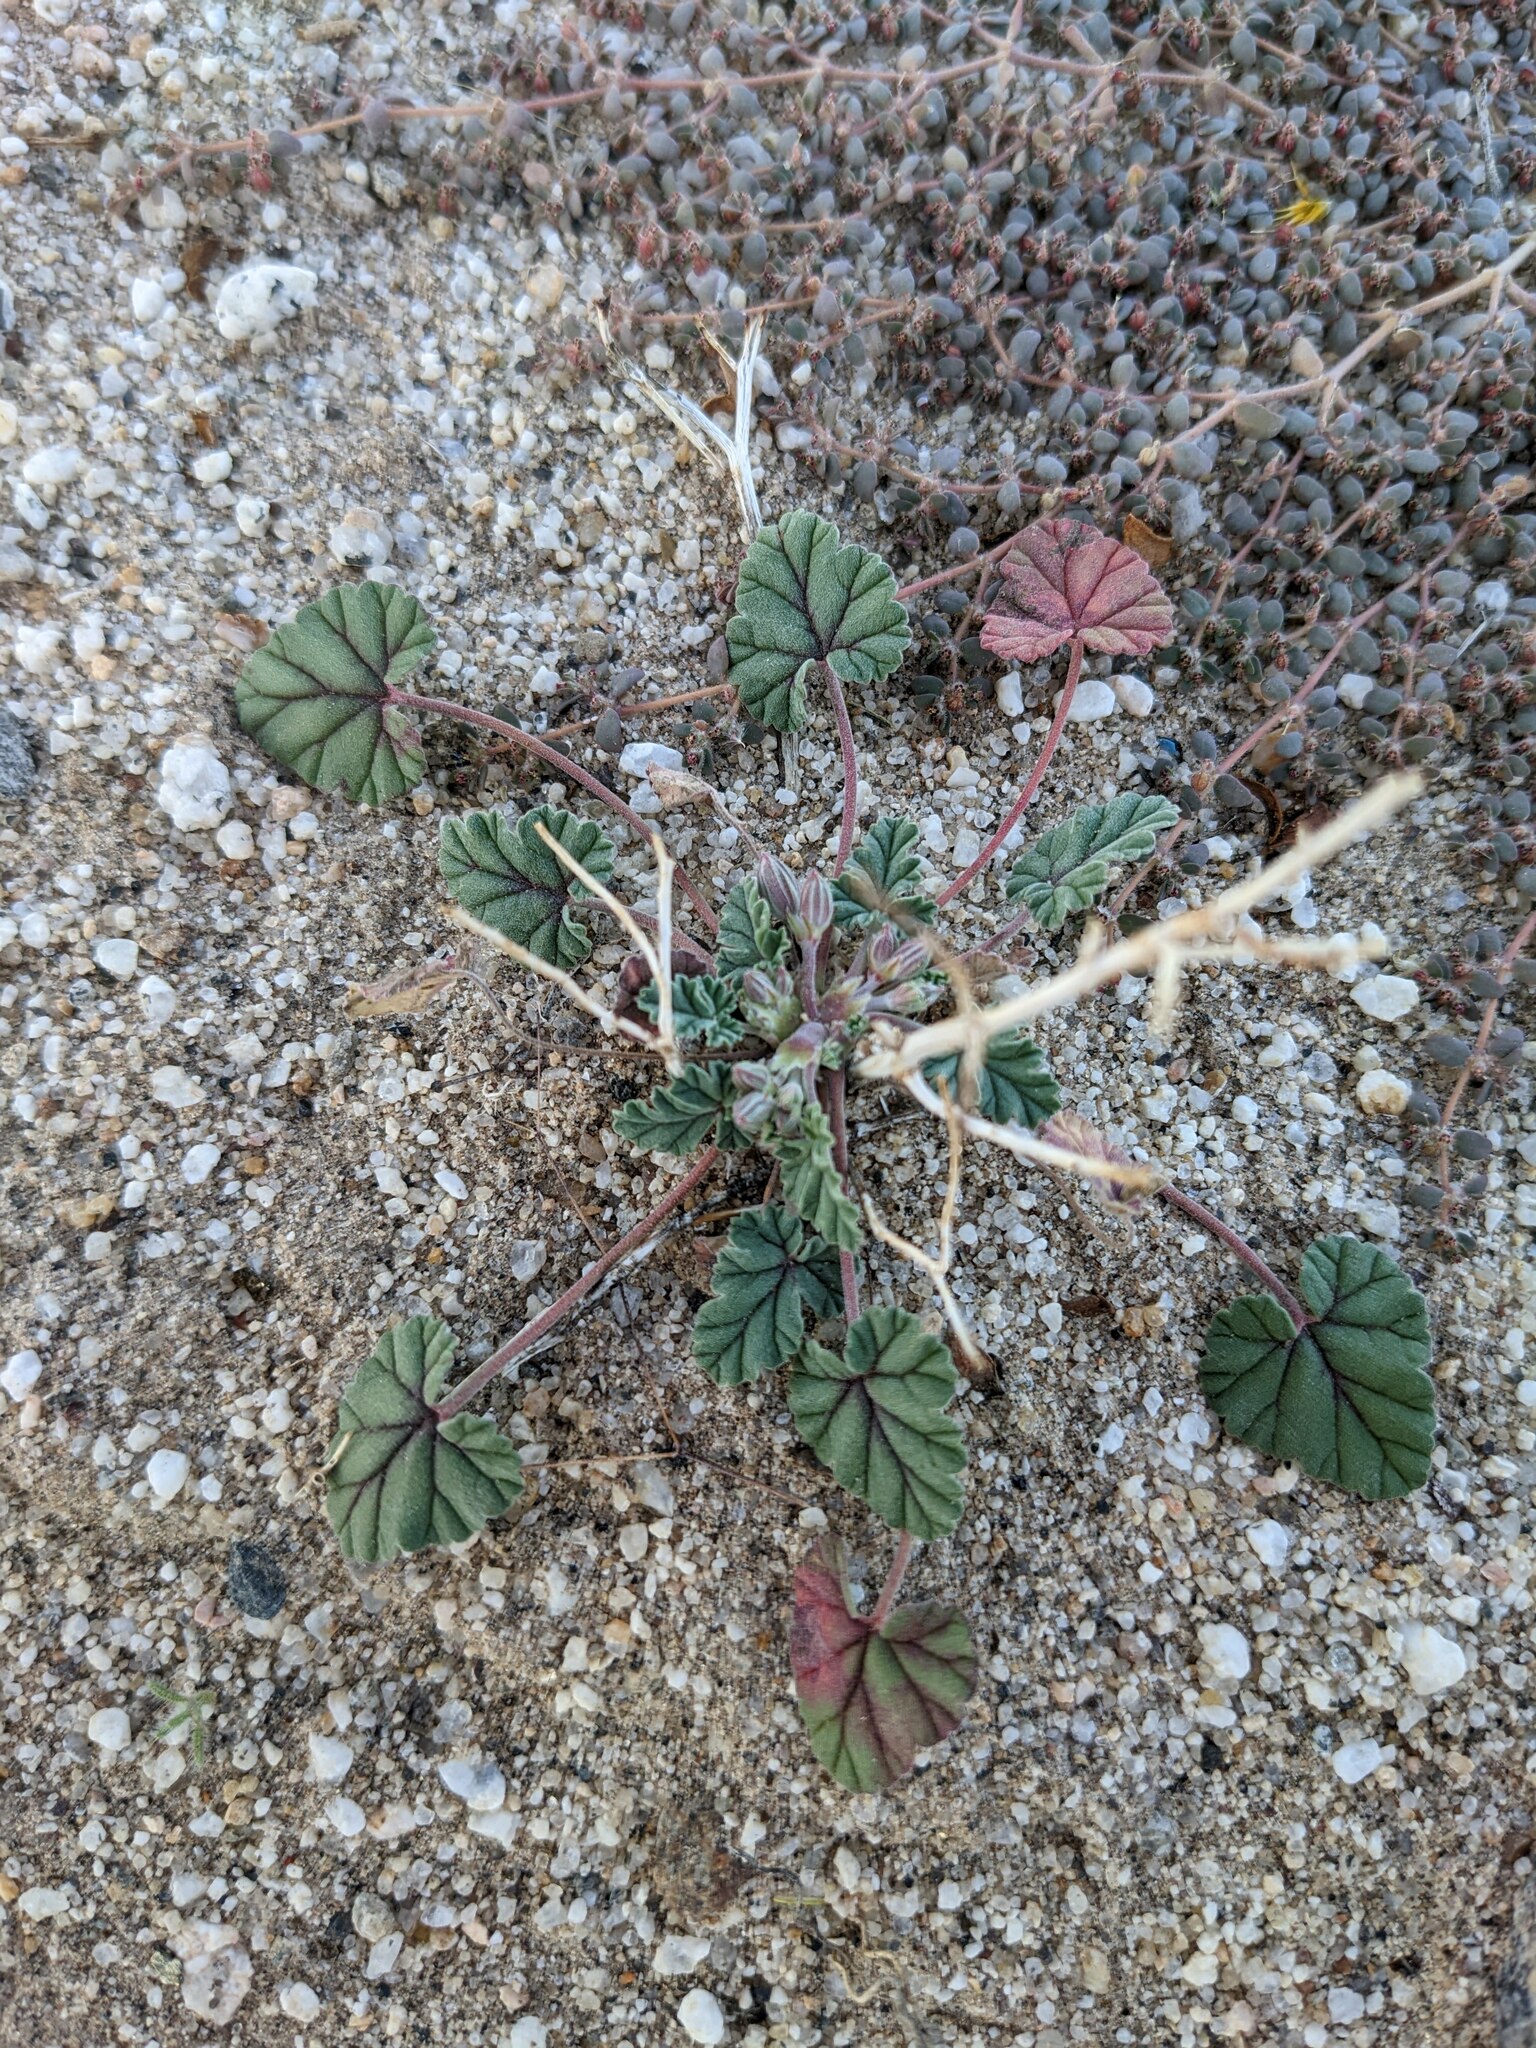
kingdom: Plantae
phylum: Tracheophyta
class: Magnoliopsida
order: Geraniales
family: Geraniaceae
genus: Erodium
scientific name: Erodium texanum
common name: Texas stork's-bill
